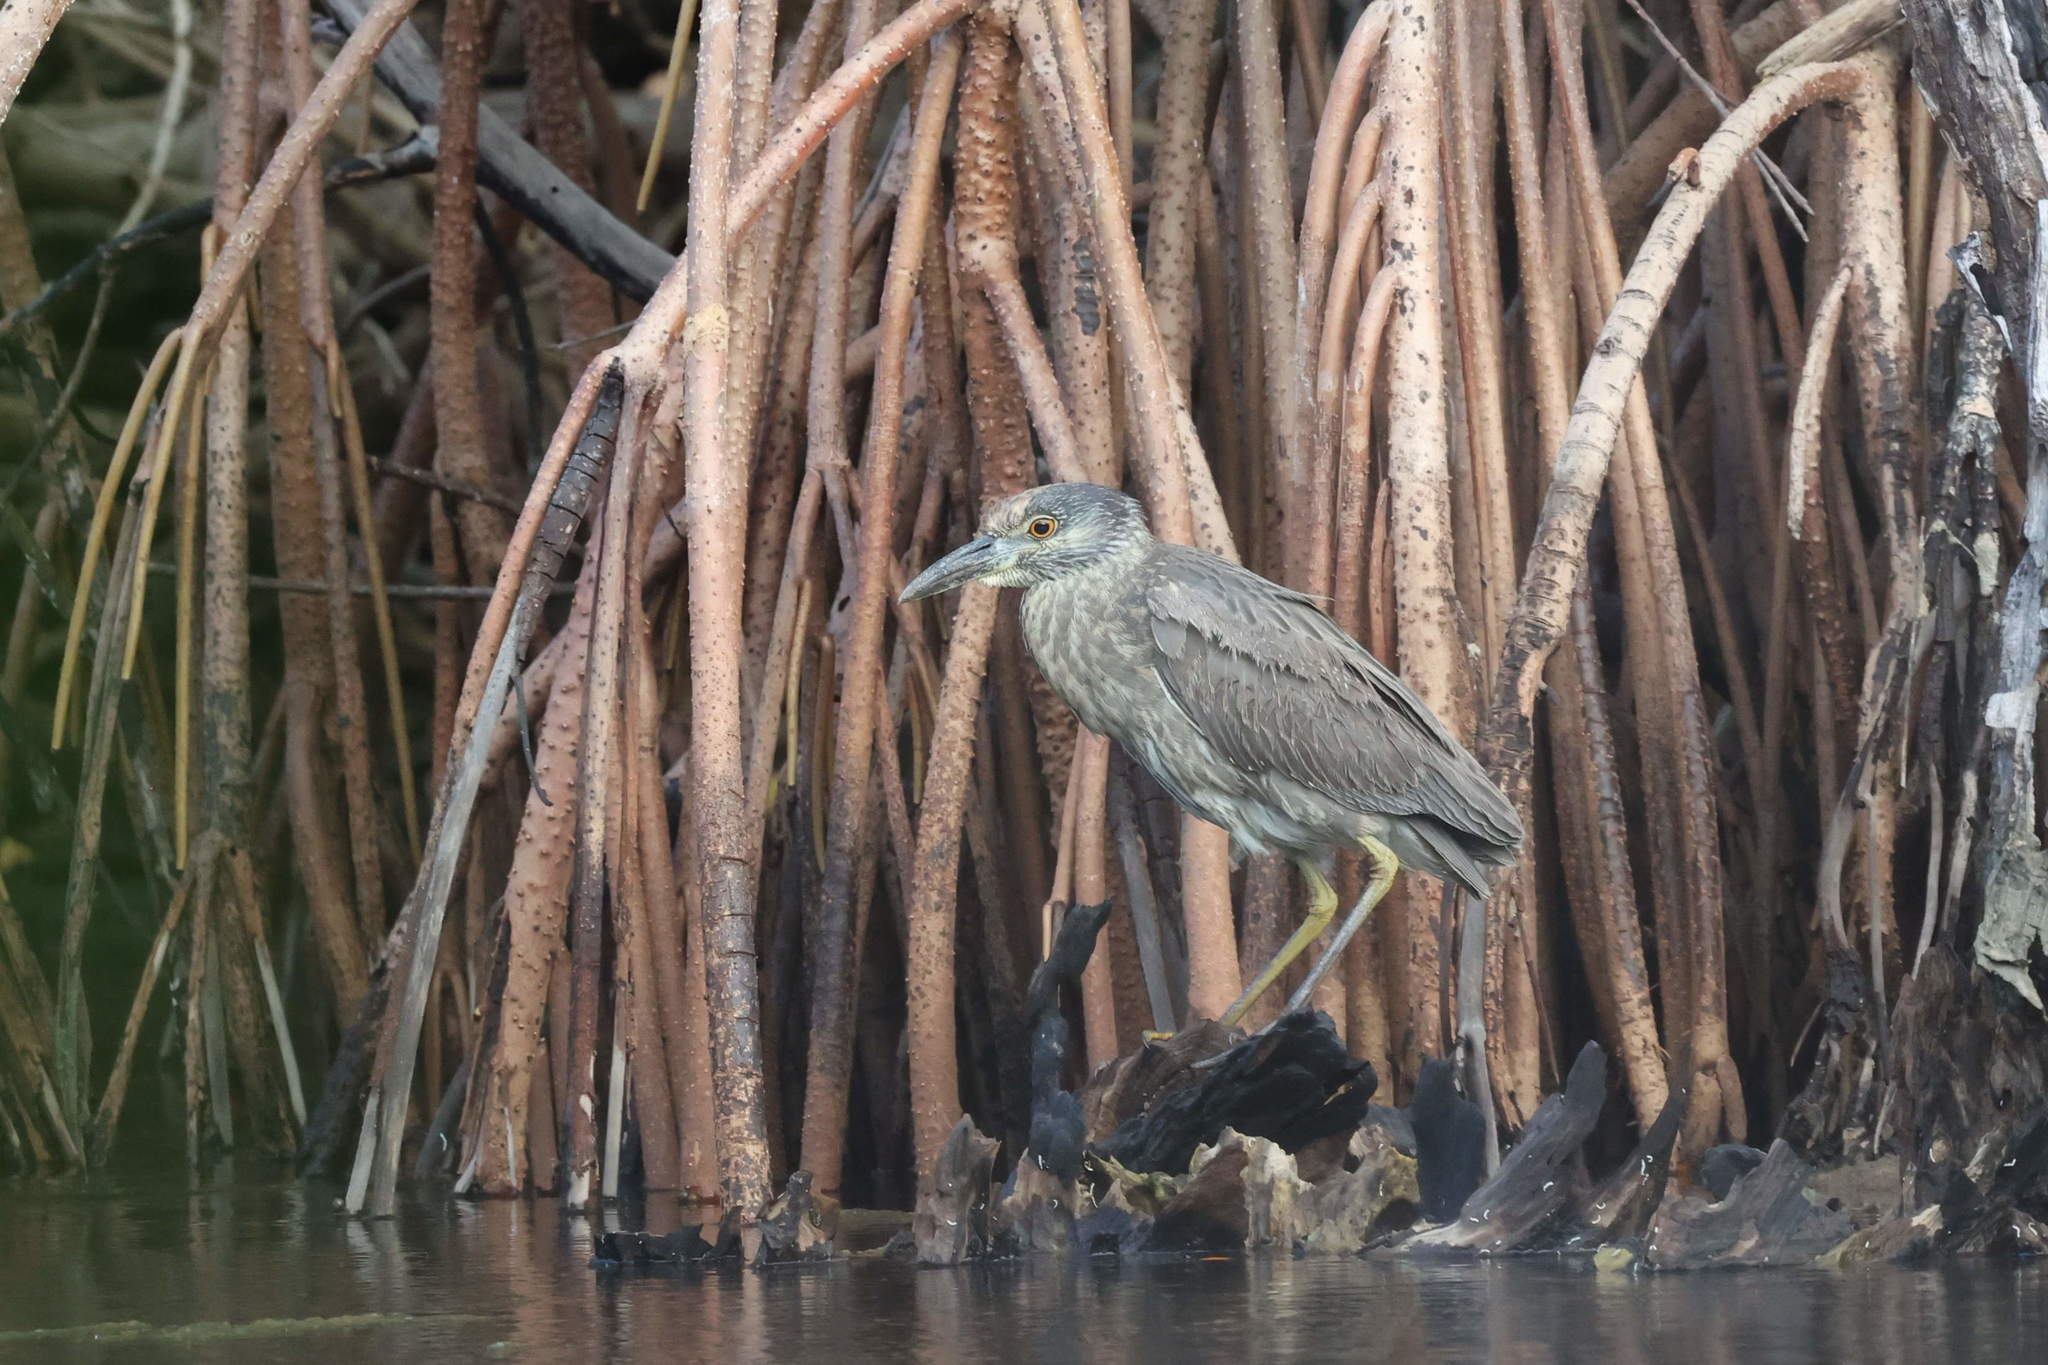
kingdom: Animalia
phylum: Chordata
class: Aves
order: Pelecaniformes
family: Ardeidae
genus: Nyctanassa
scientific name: Nyctanassa violacea
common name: Yellow-crowned night heron
